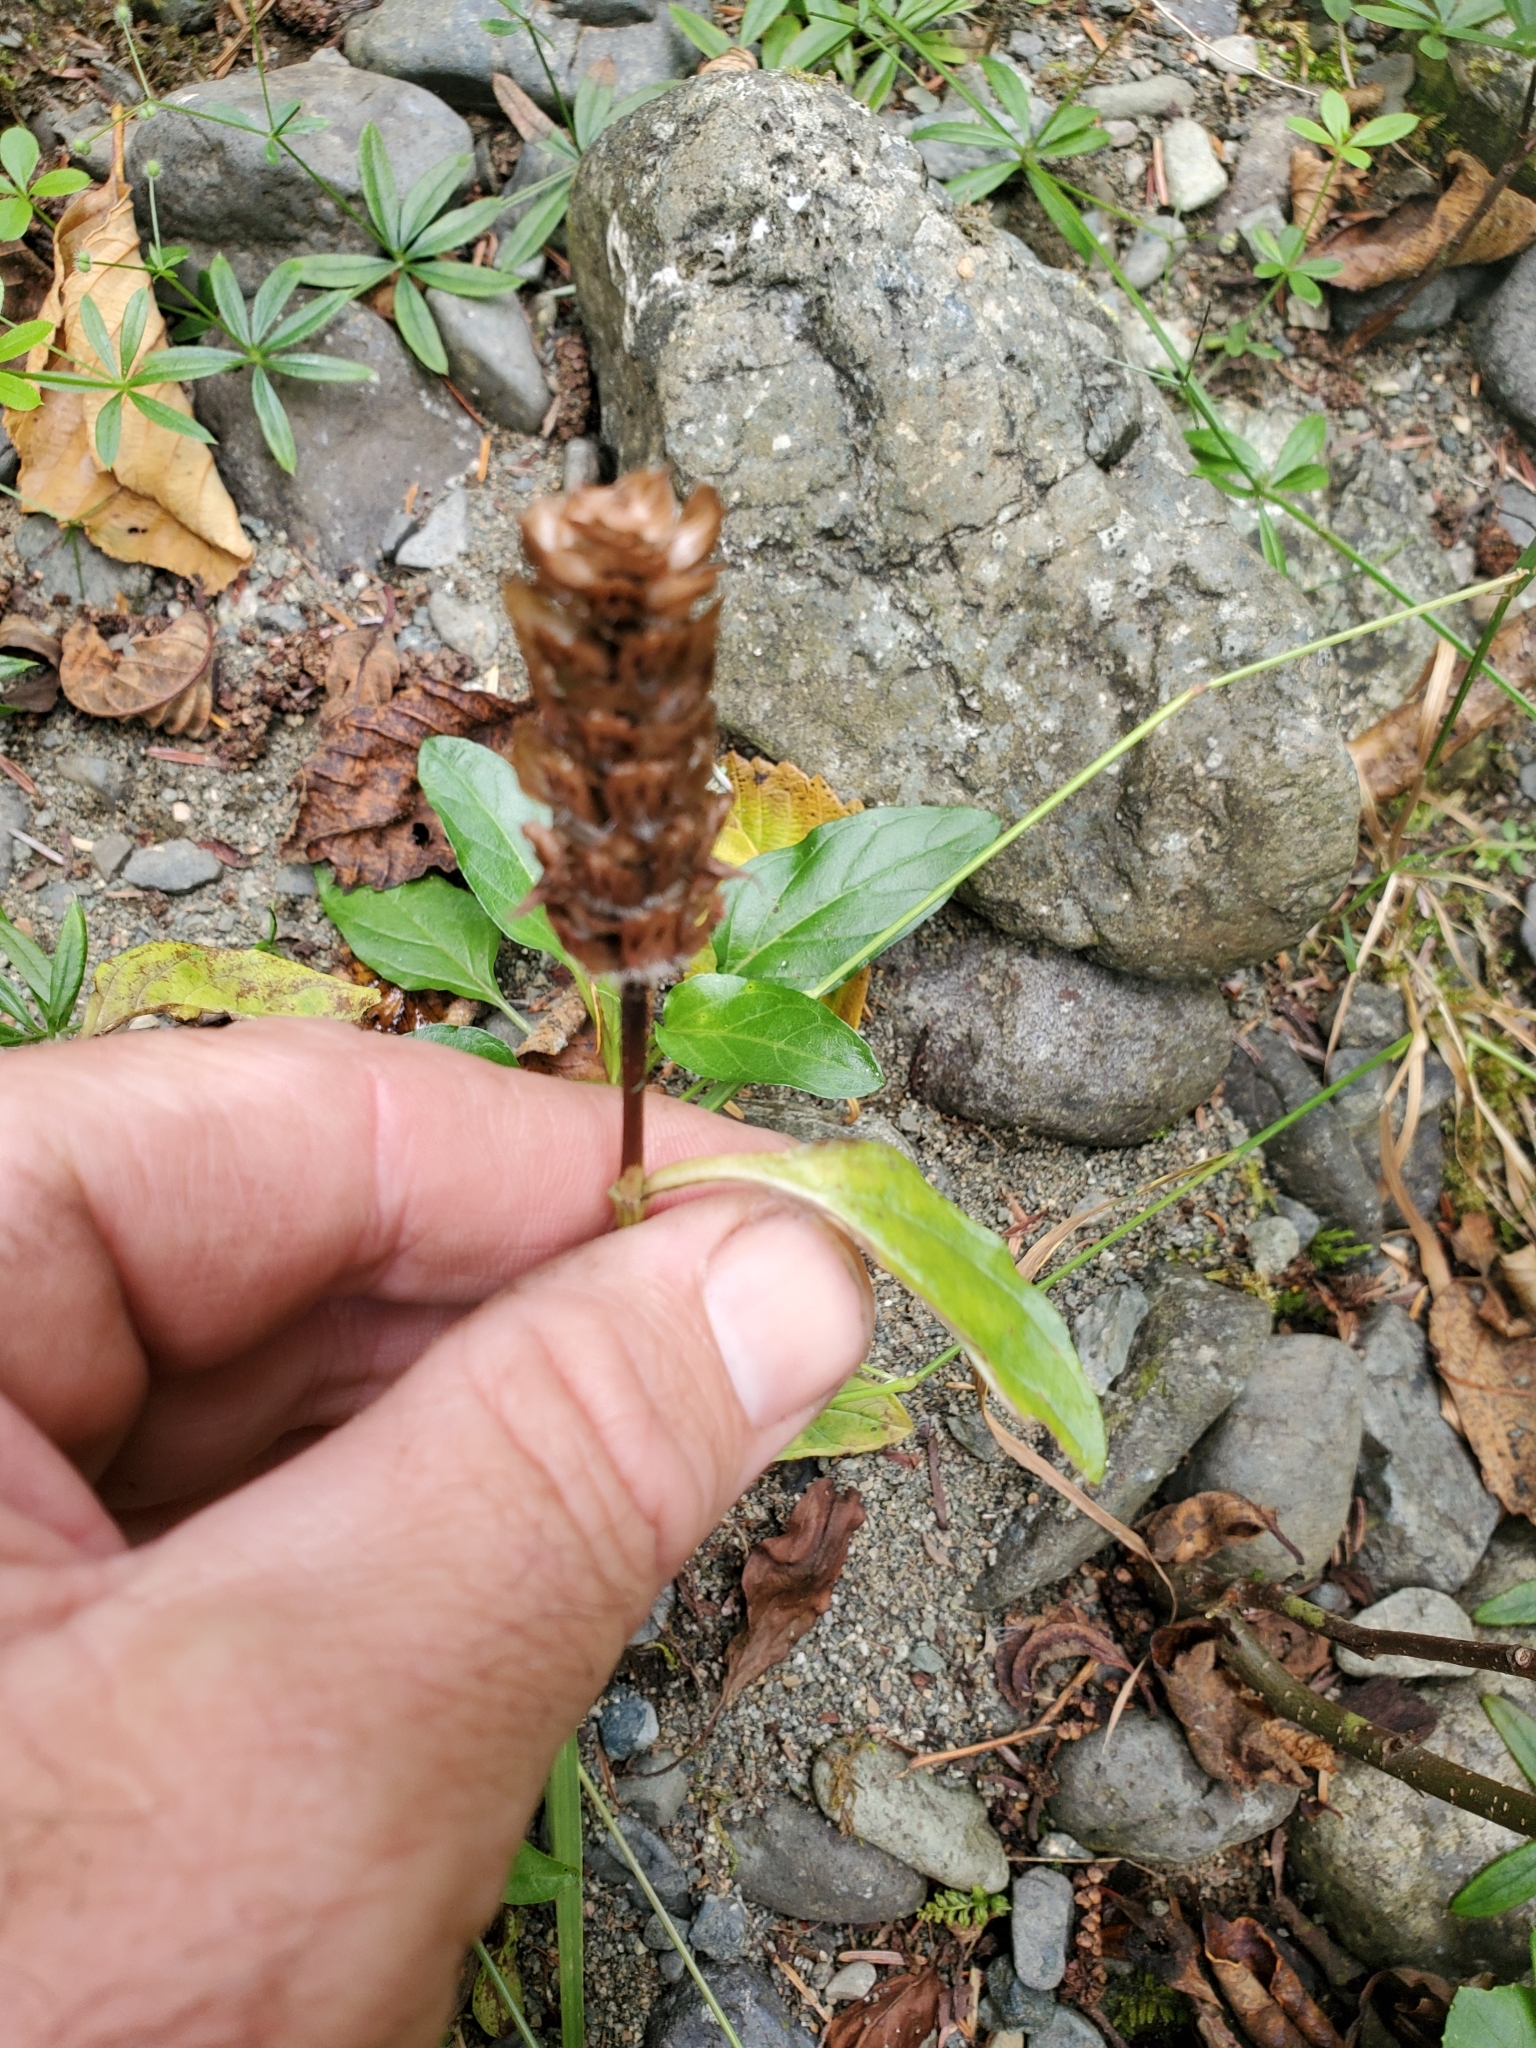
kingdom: Plantae
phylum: Tracheophyta
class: Magnoliopsida
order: Lamiales
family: Lamiaceae
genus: Prunella
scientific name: Prunella vulgaris
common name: Heal-all
